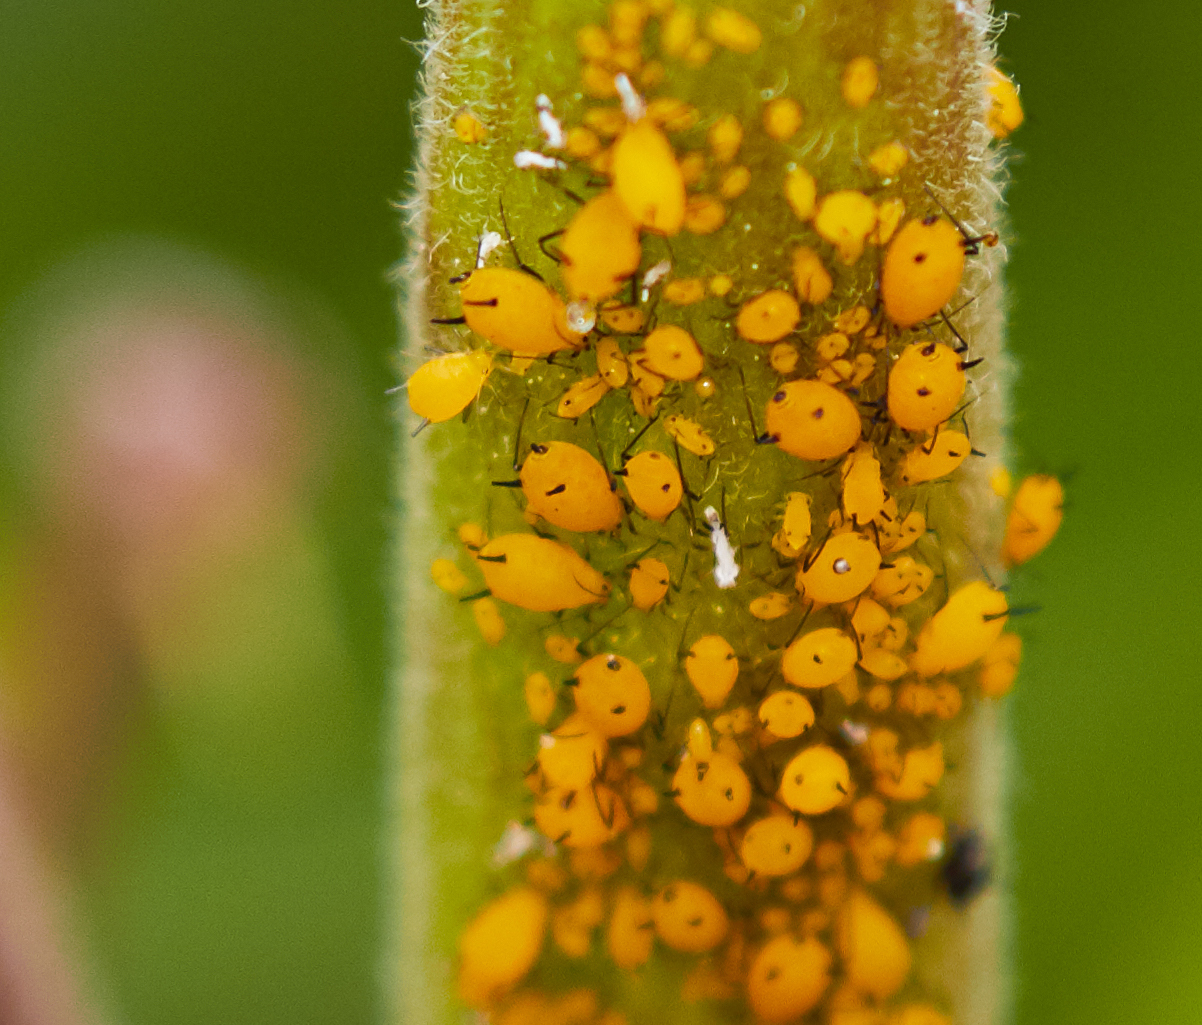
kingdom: Animalia
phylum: Arthropoda
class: Insecta
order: Hemiptera
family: Aphididae
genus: Aphis
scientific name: Aphis nerii
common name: Oleander aphid
